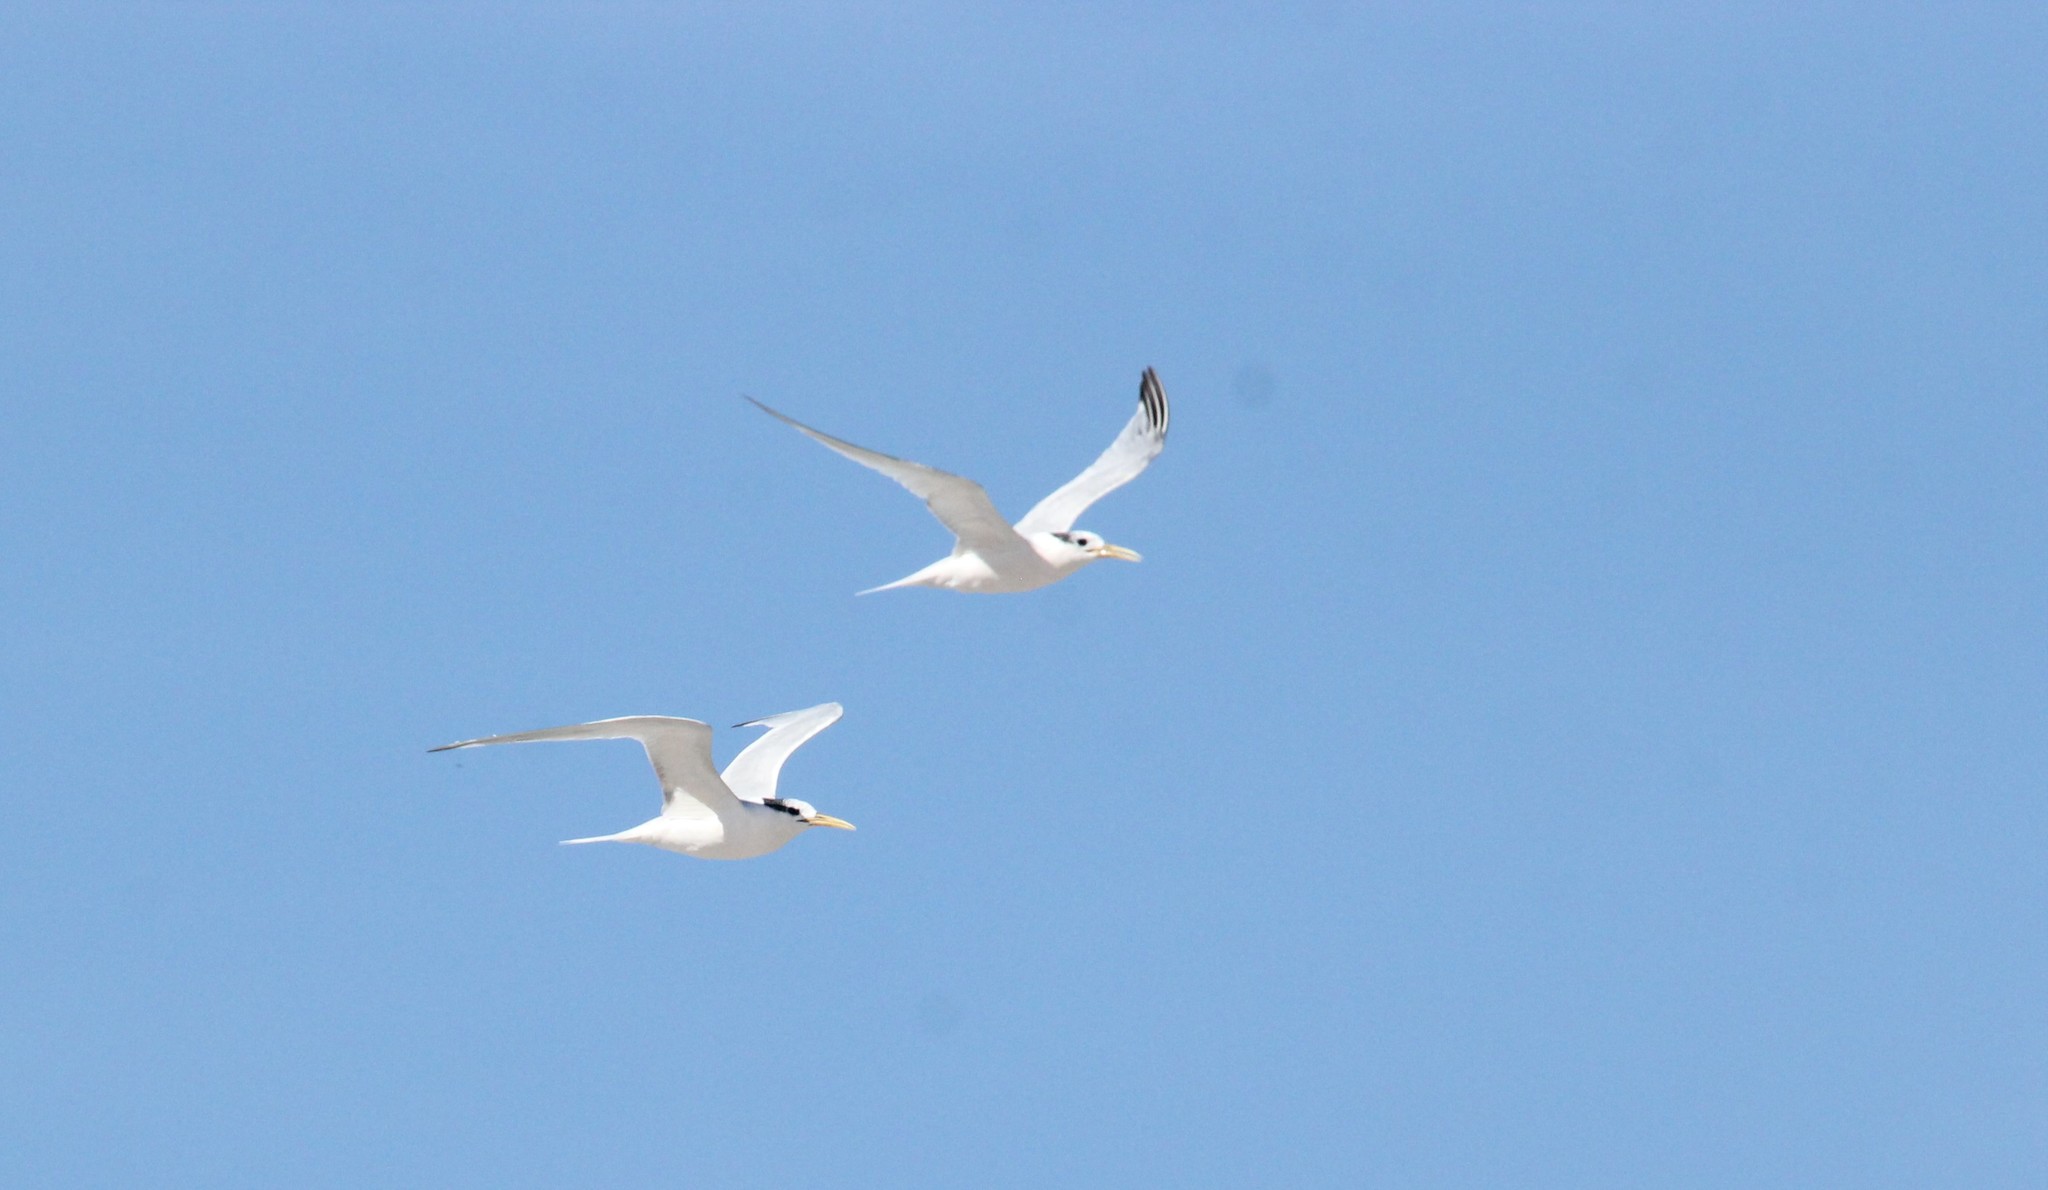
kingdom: Animalia
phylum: Chordata
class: Aves
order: Charadriiformes
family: Laridae
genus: Thalasseus
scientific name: Thalasseus acuflavidus
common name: Cabot's tern
